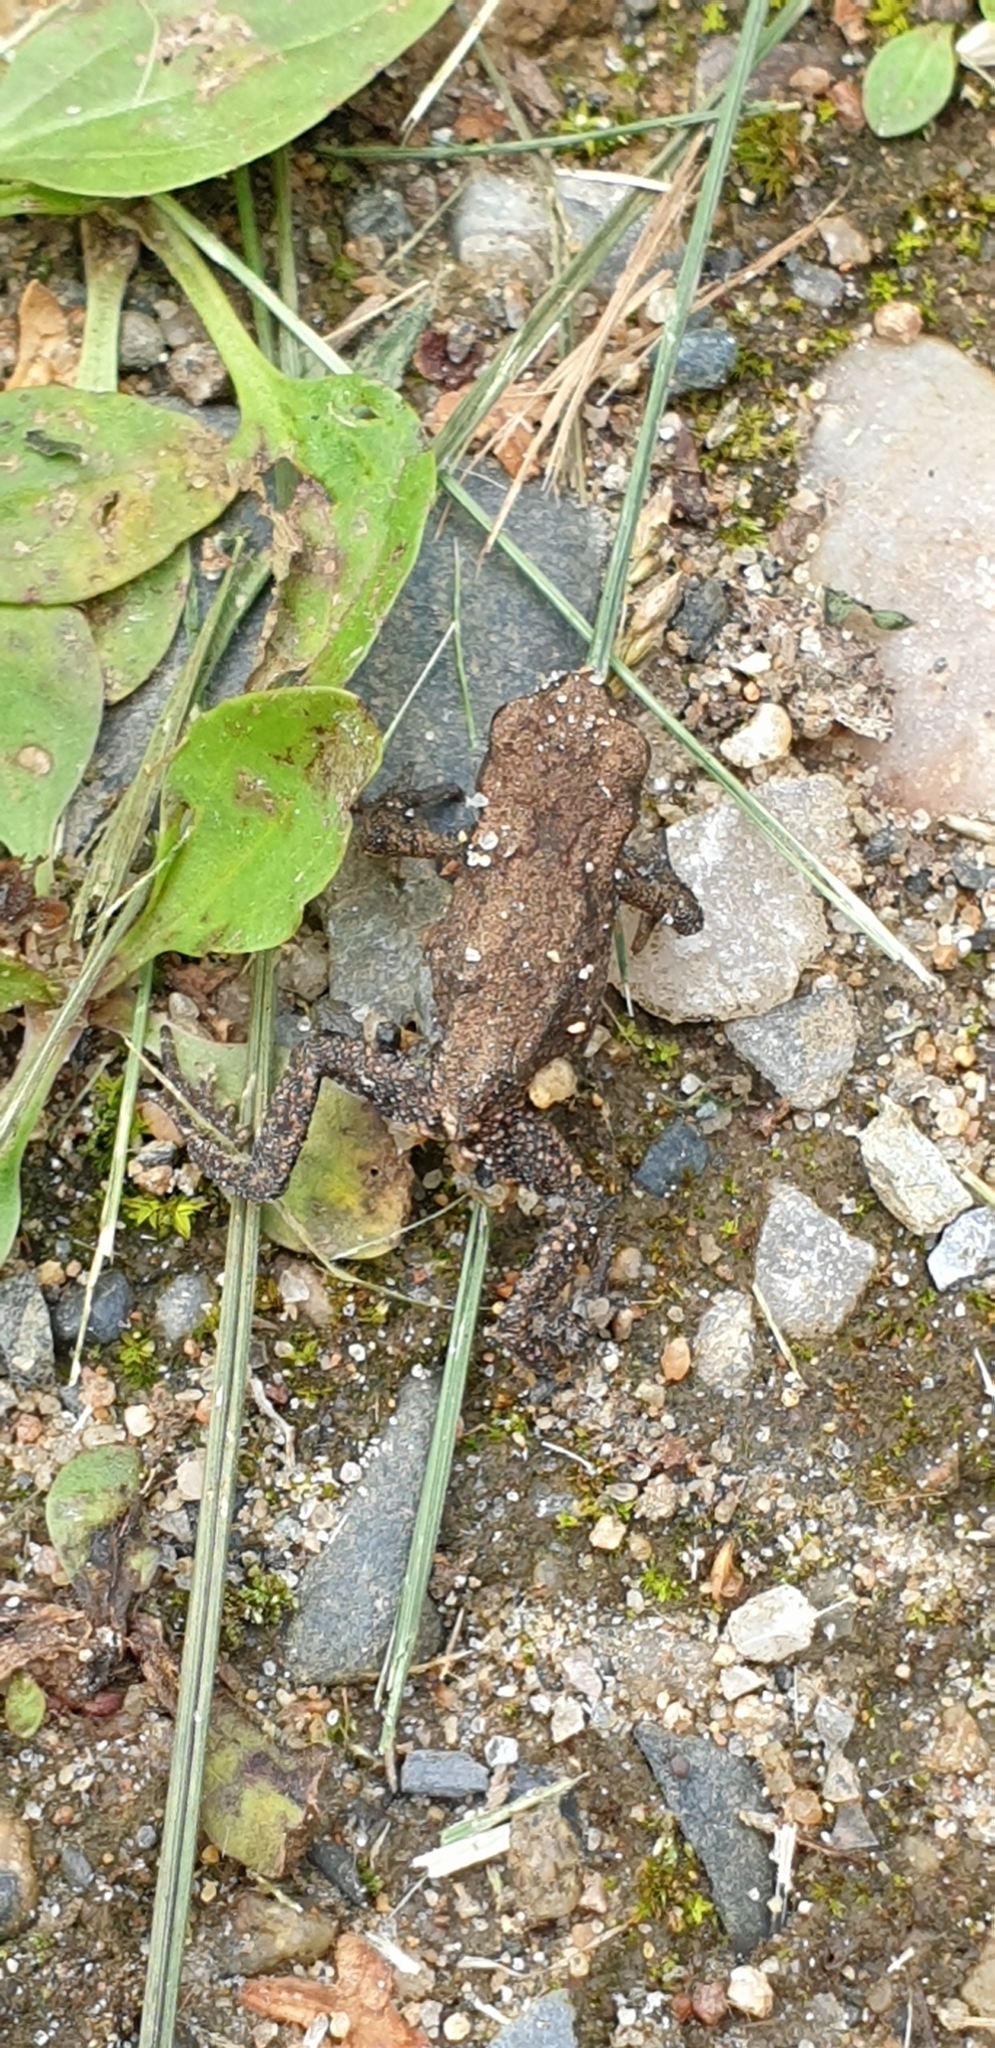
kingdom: Animalia
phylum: Chordata
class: Amphibia
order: Anura
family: Bufonidae
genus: Bufo
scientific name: Bufo bufo
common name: Common toad
